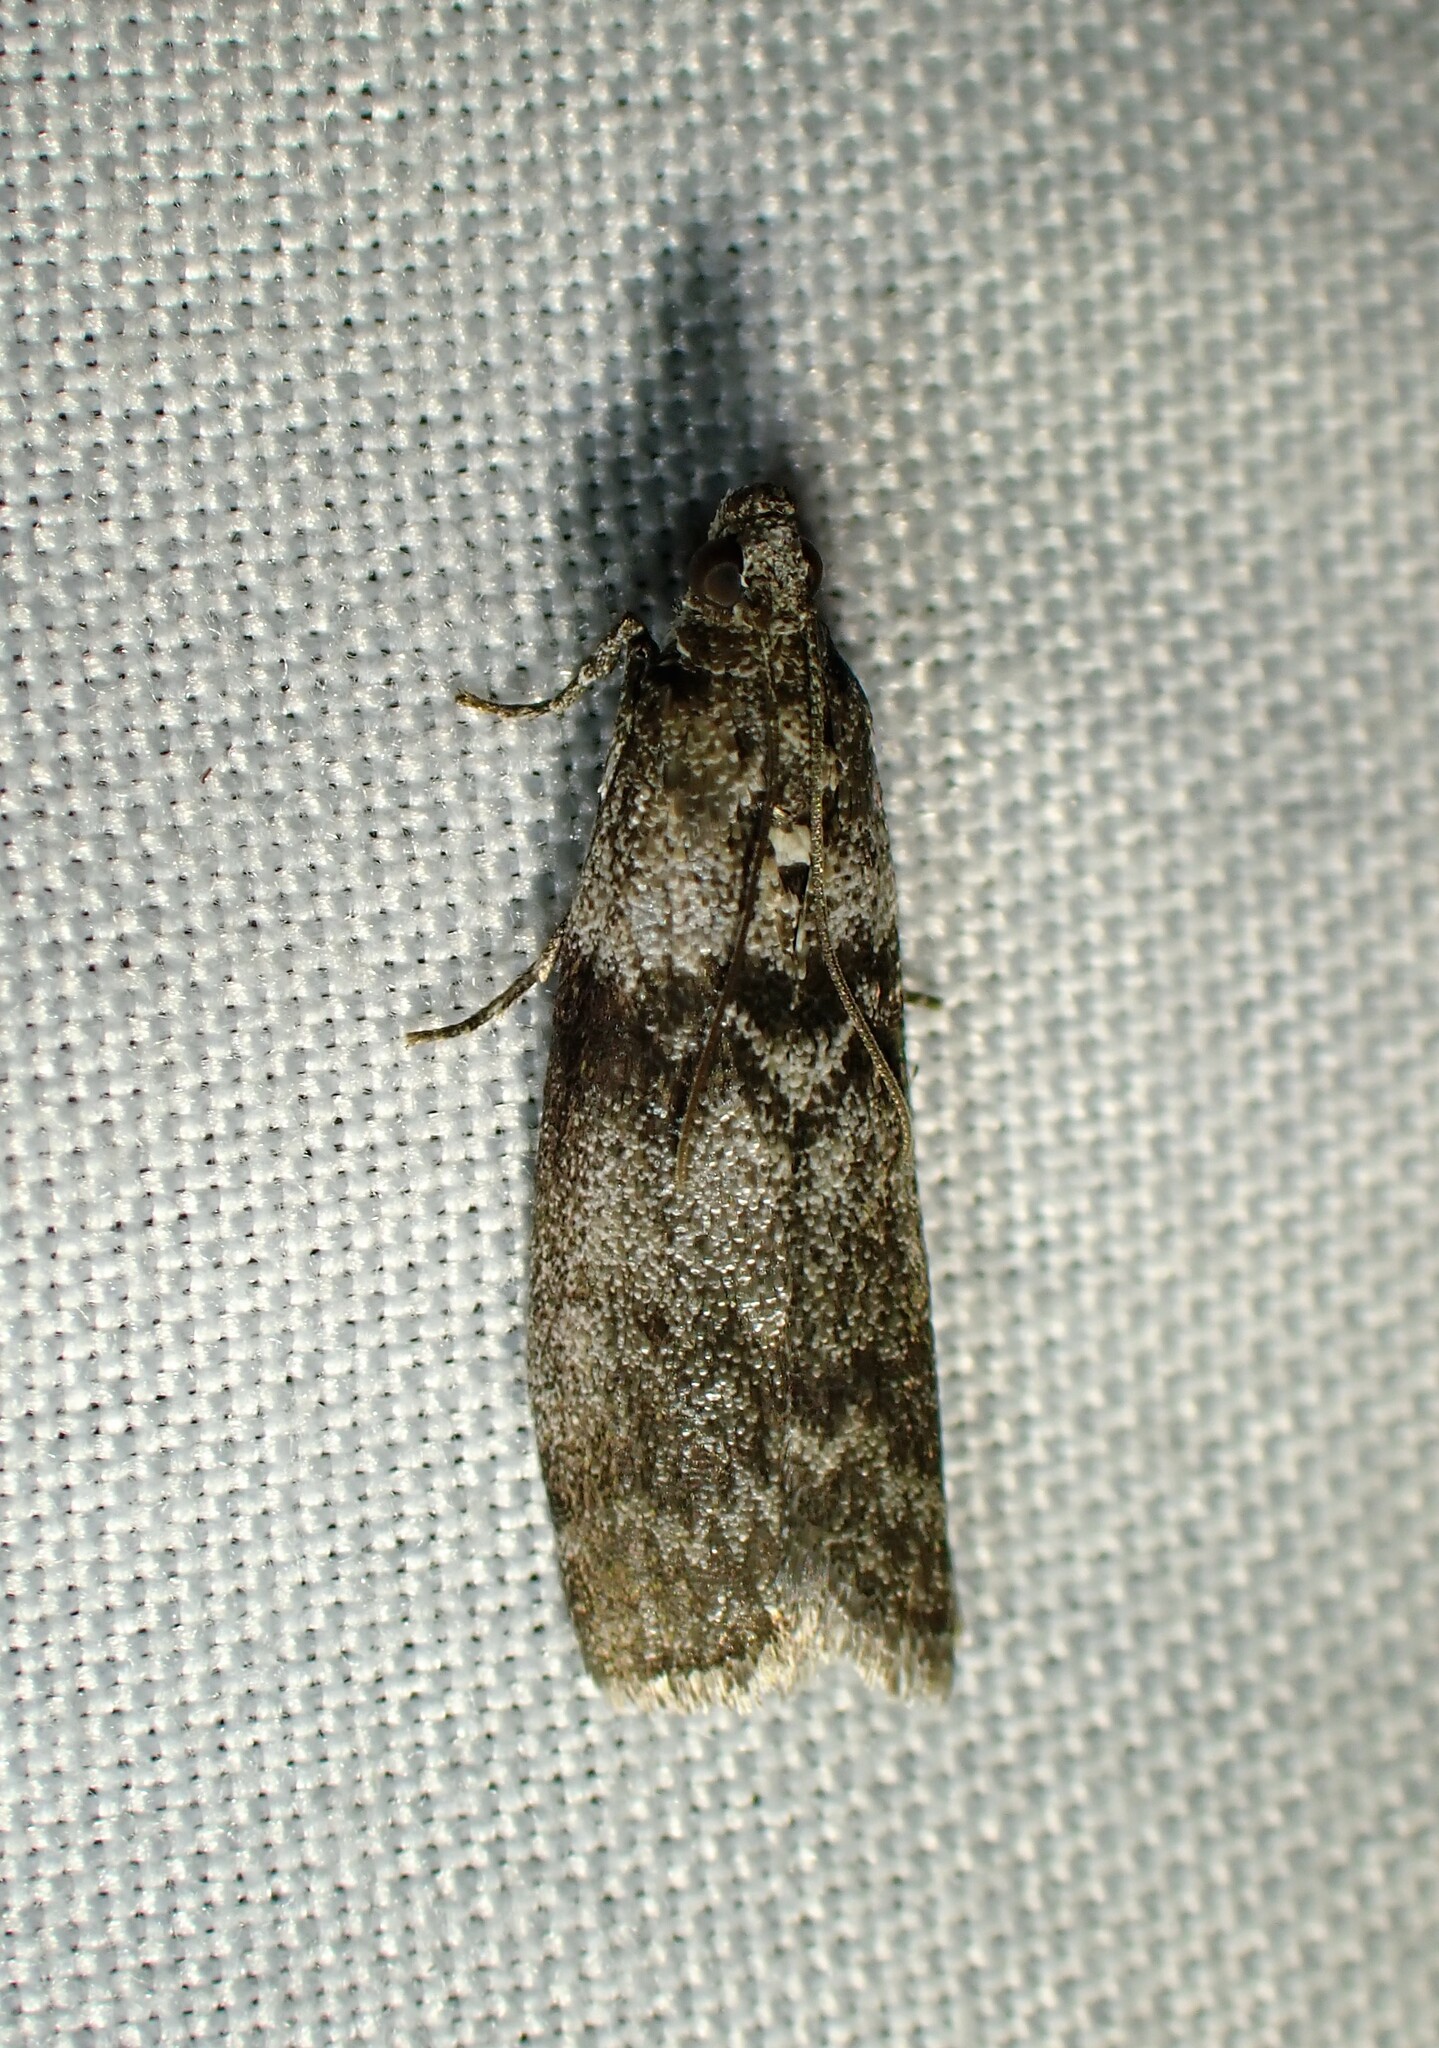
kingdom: Animalia
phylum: Arthropoda
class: Insecta
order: Lepidoptera
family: Pyralidae
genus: Meroptera
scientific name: Meroptera pravella
